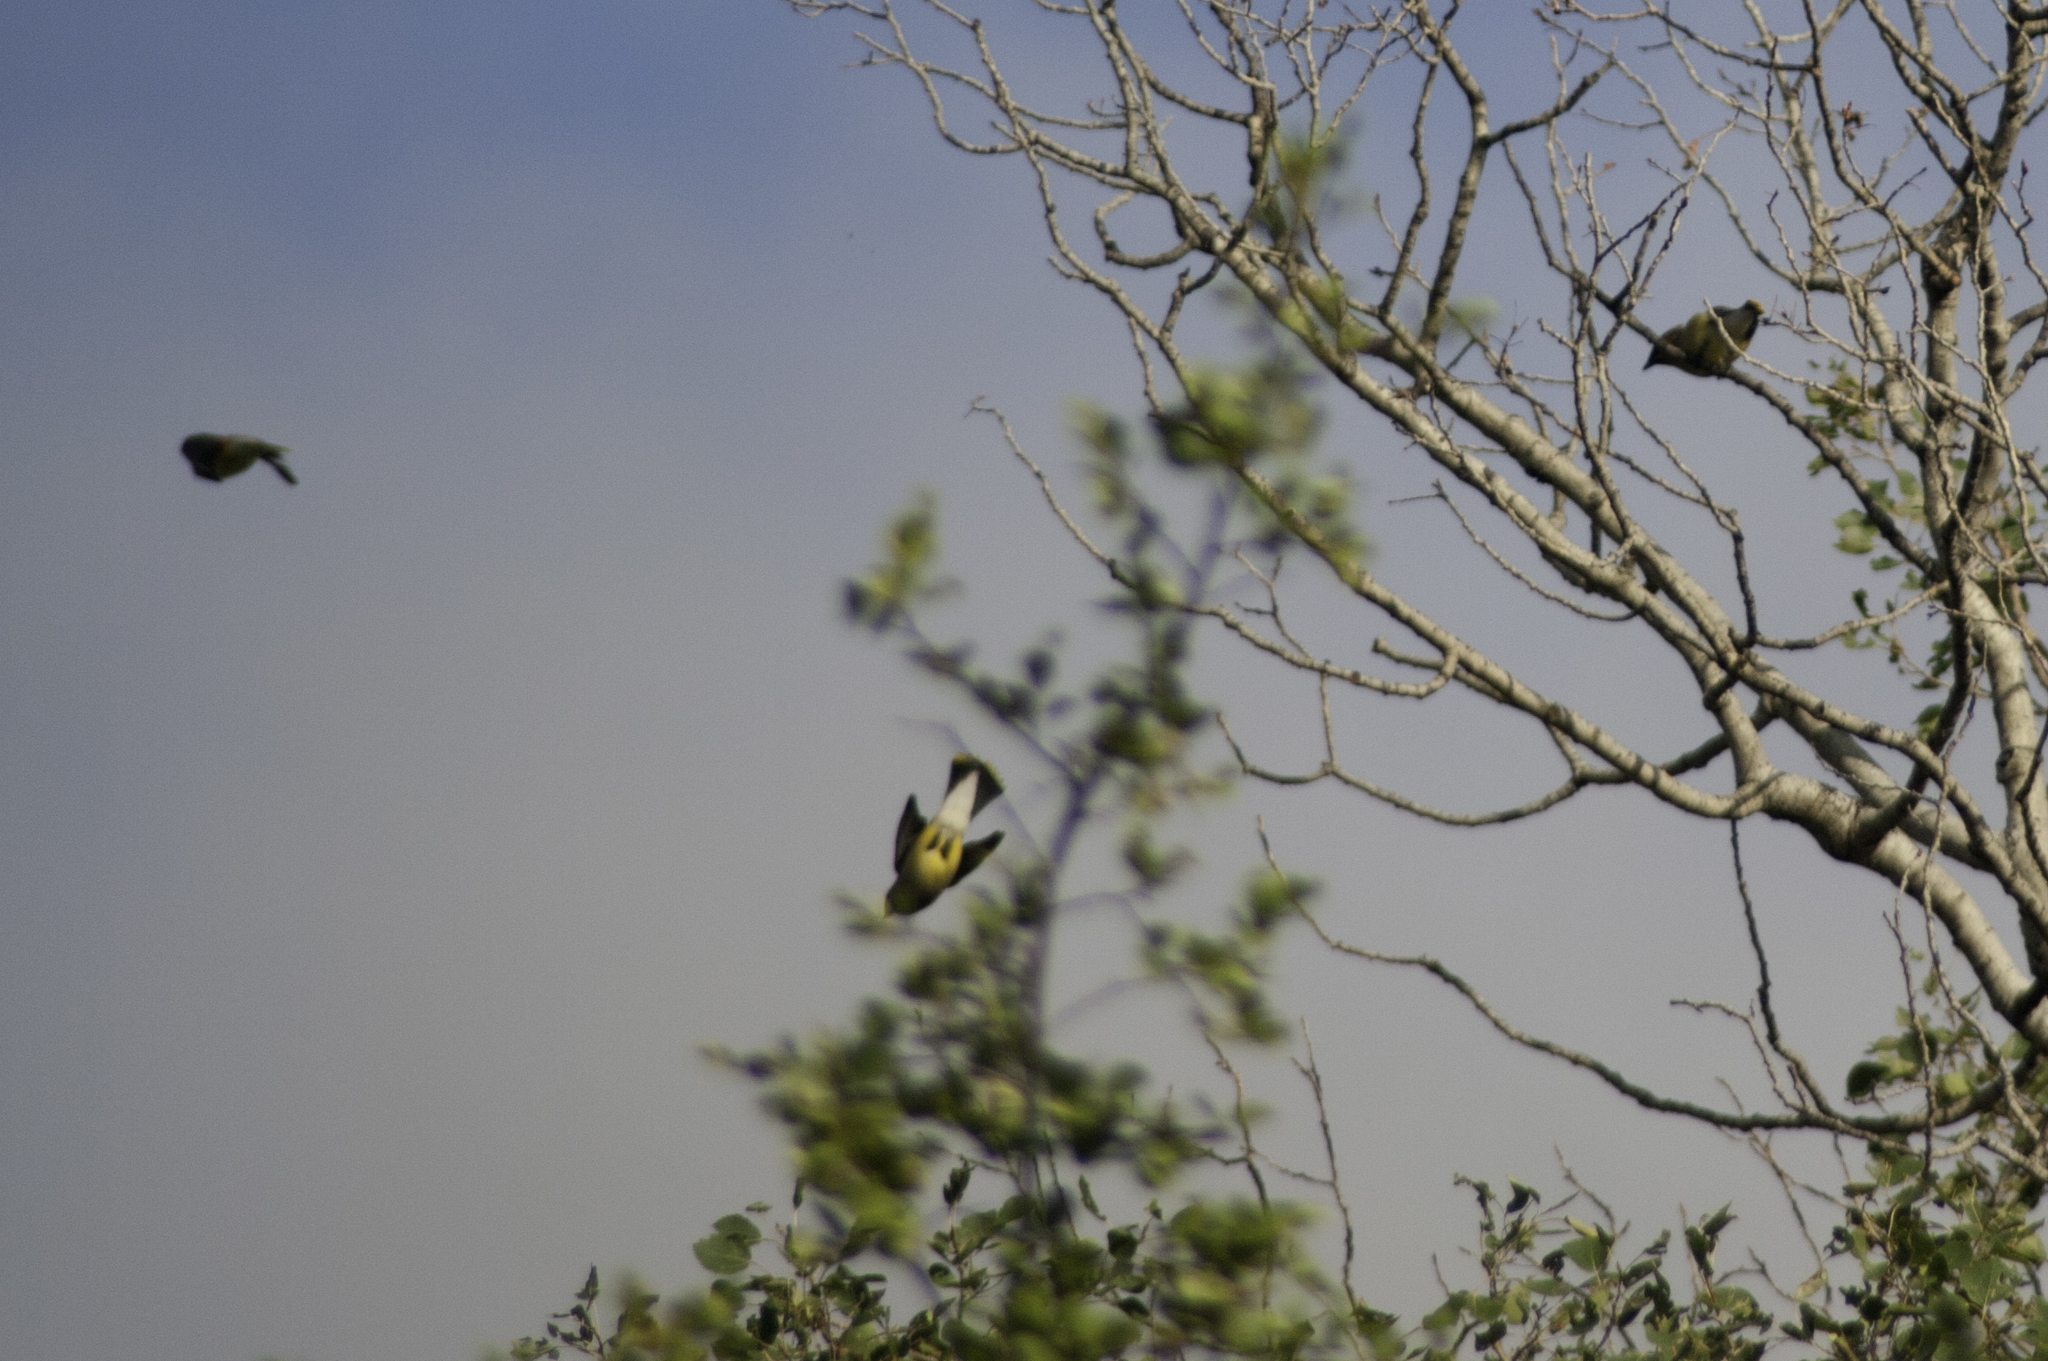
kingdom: Animalia
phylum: Chordata
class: Aves
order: Passeriformes
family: Bombycillidae
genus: Bombycilla
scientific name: Bombycilla cedrorum
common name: Cedar waxwing
